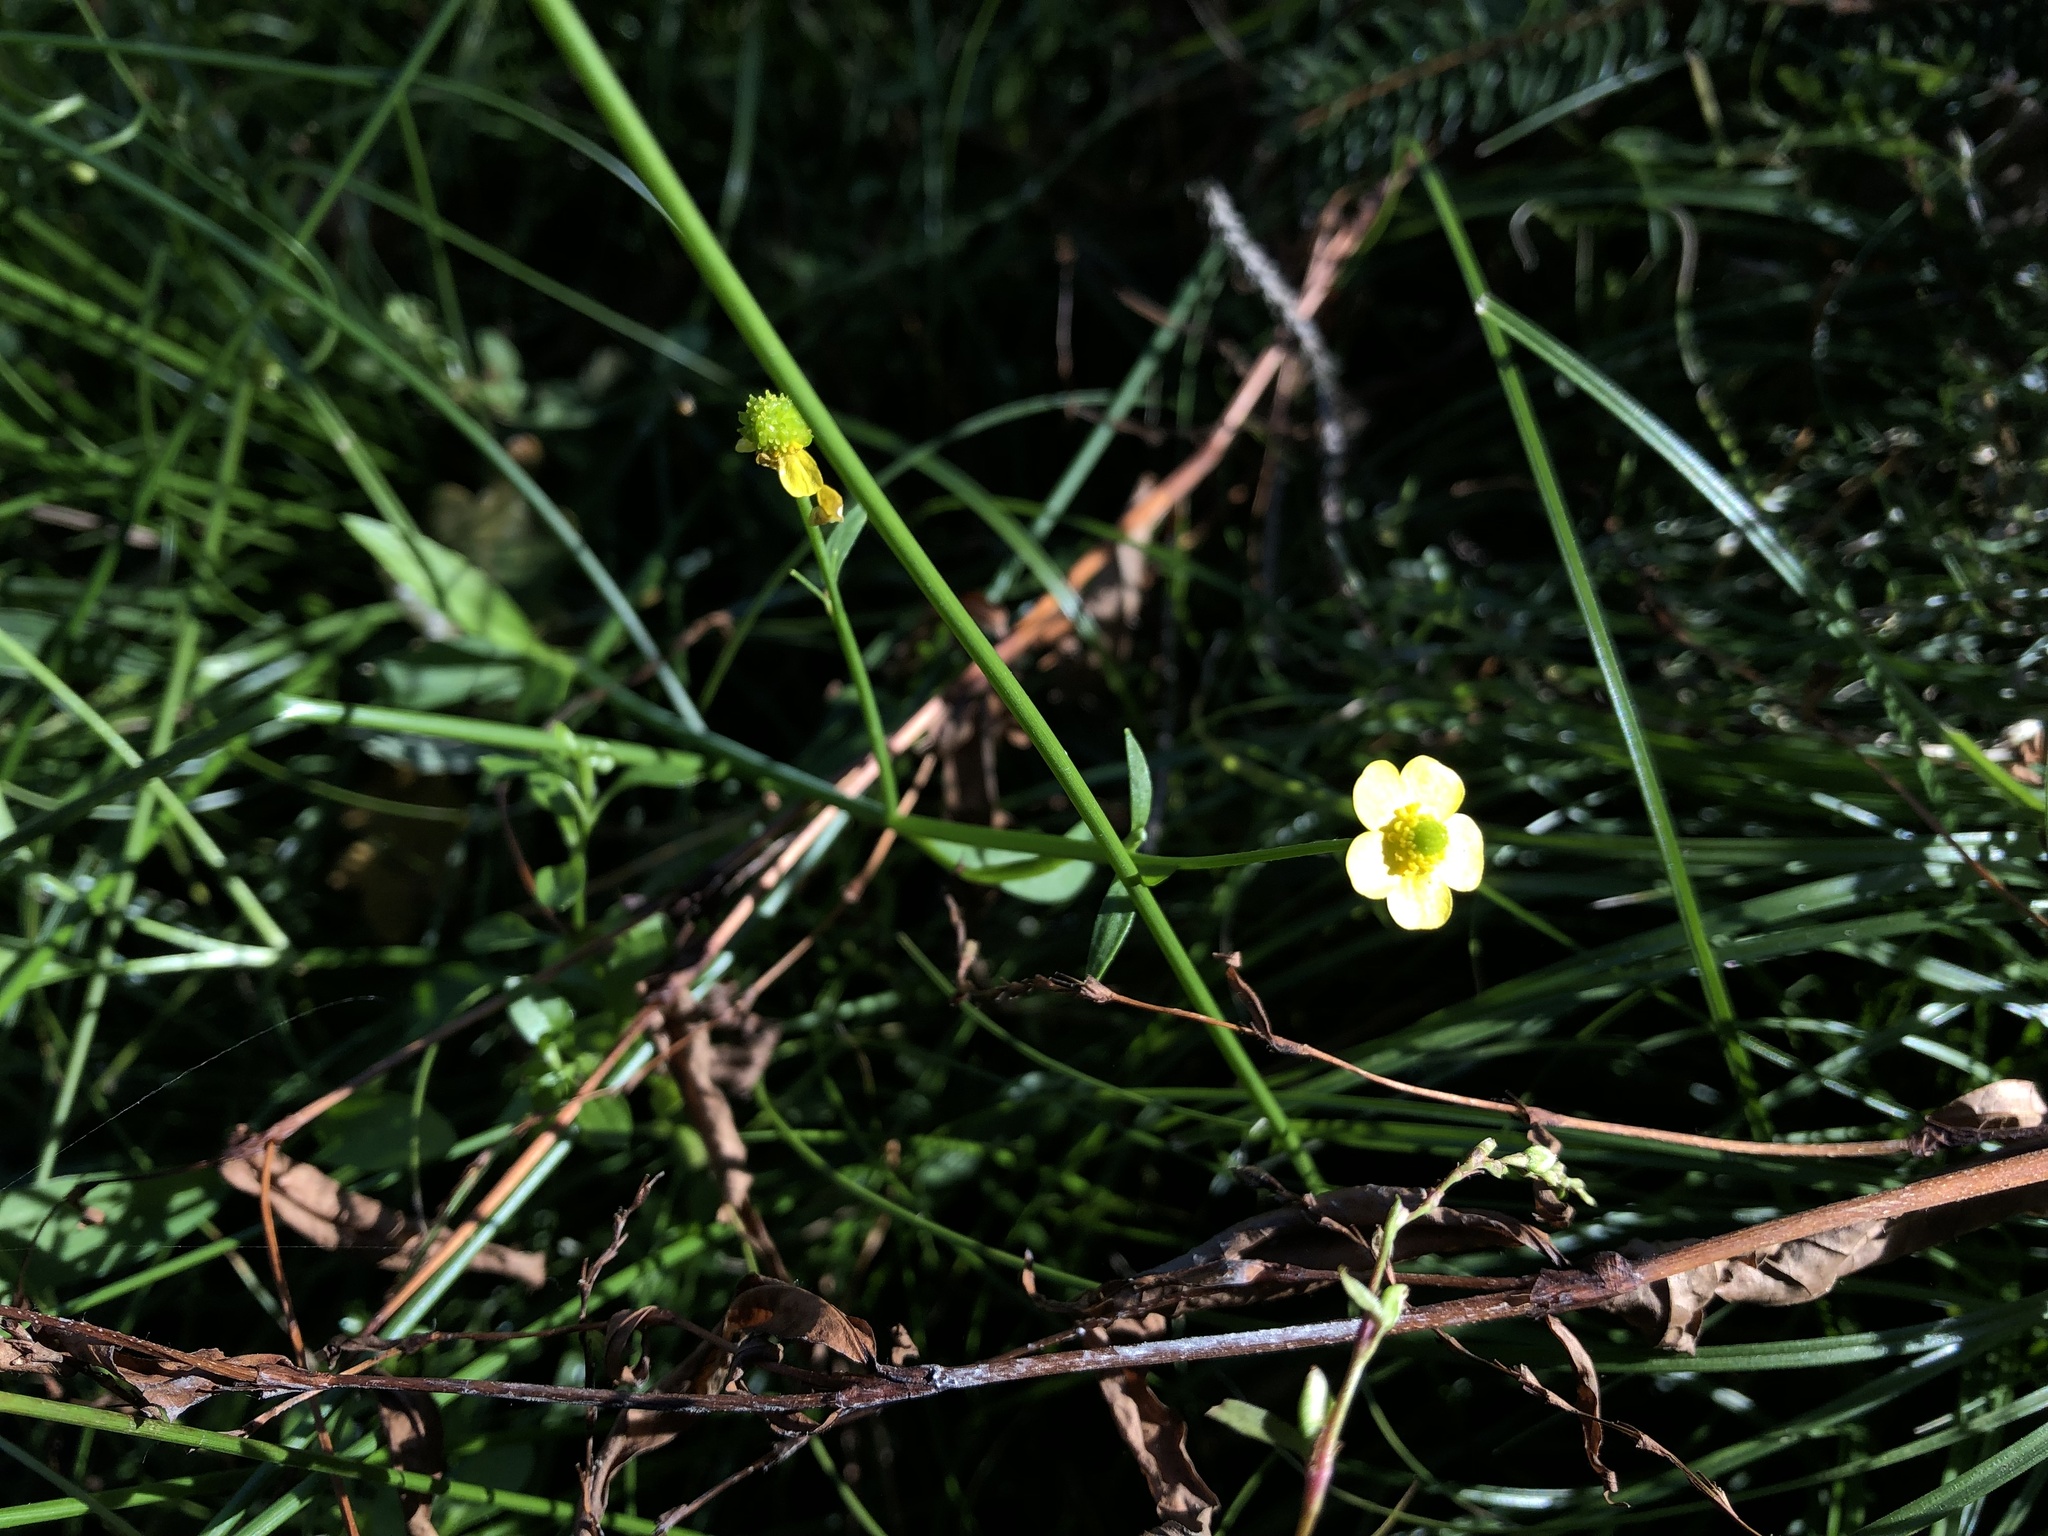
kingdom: Plantae
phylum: Tracheophyta
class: Magnoliopsida
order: Ranunculales
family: Ranunculaceae
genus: Ranunculus
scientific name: Ranunculus flammula
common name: Lesser spearwort
